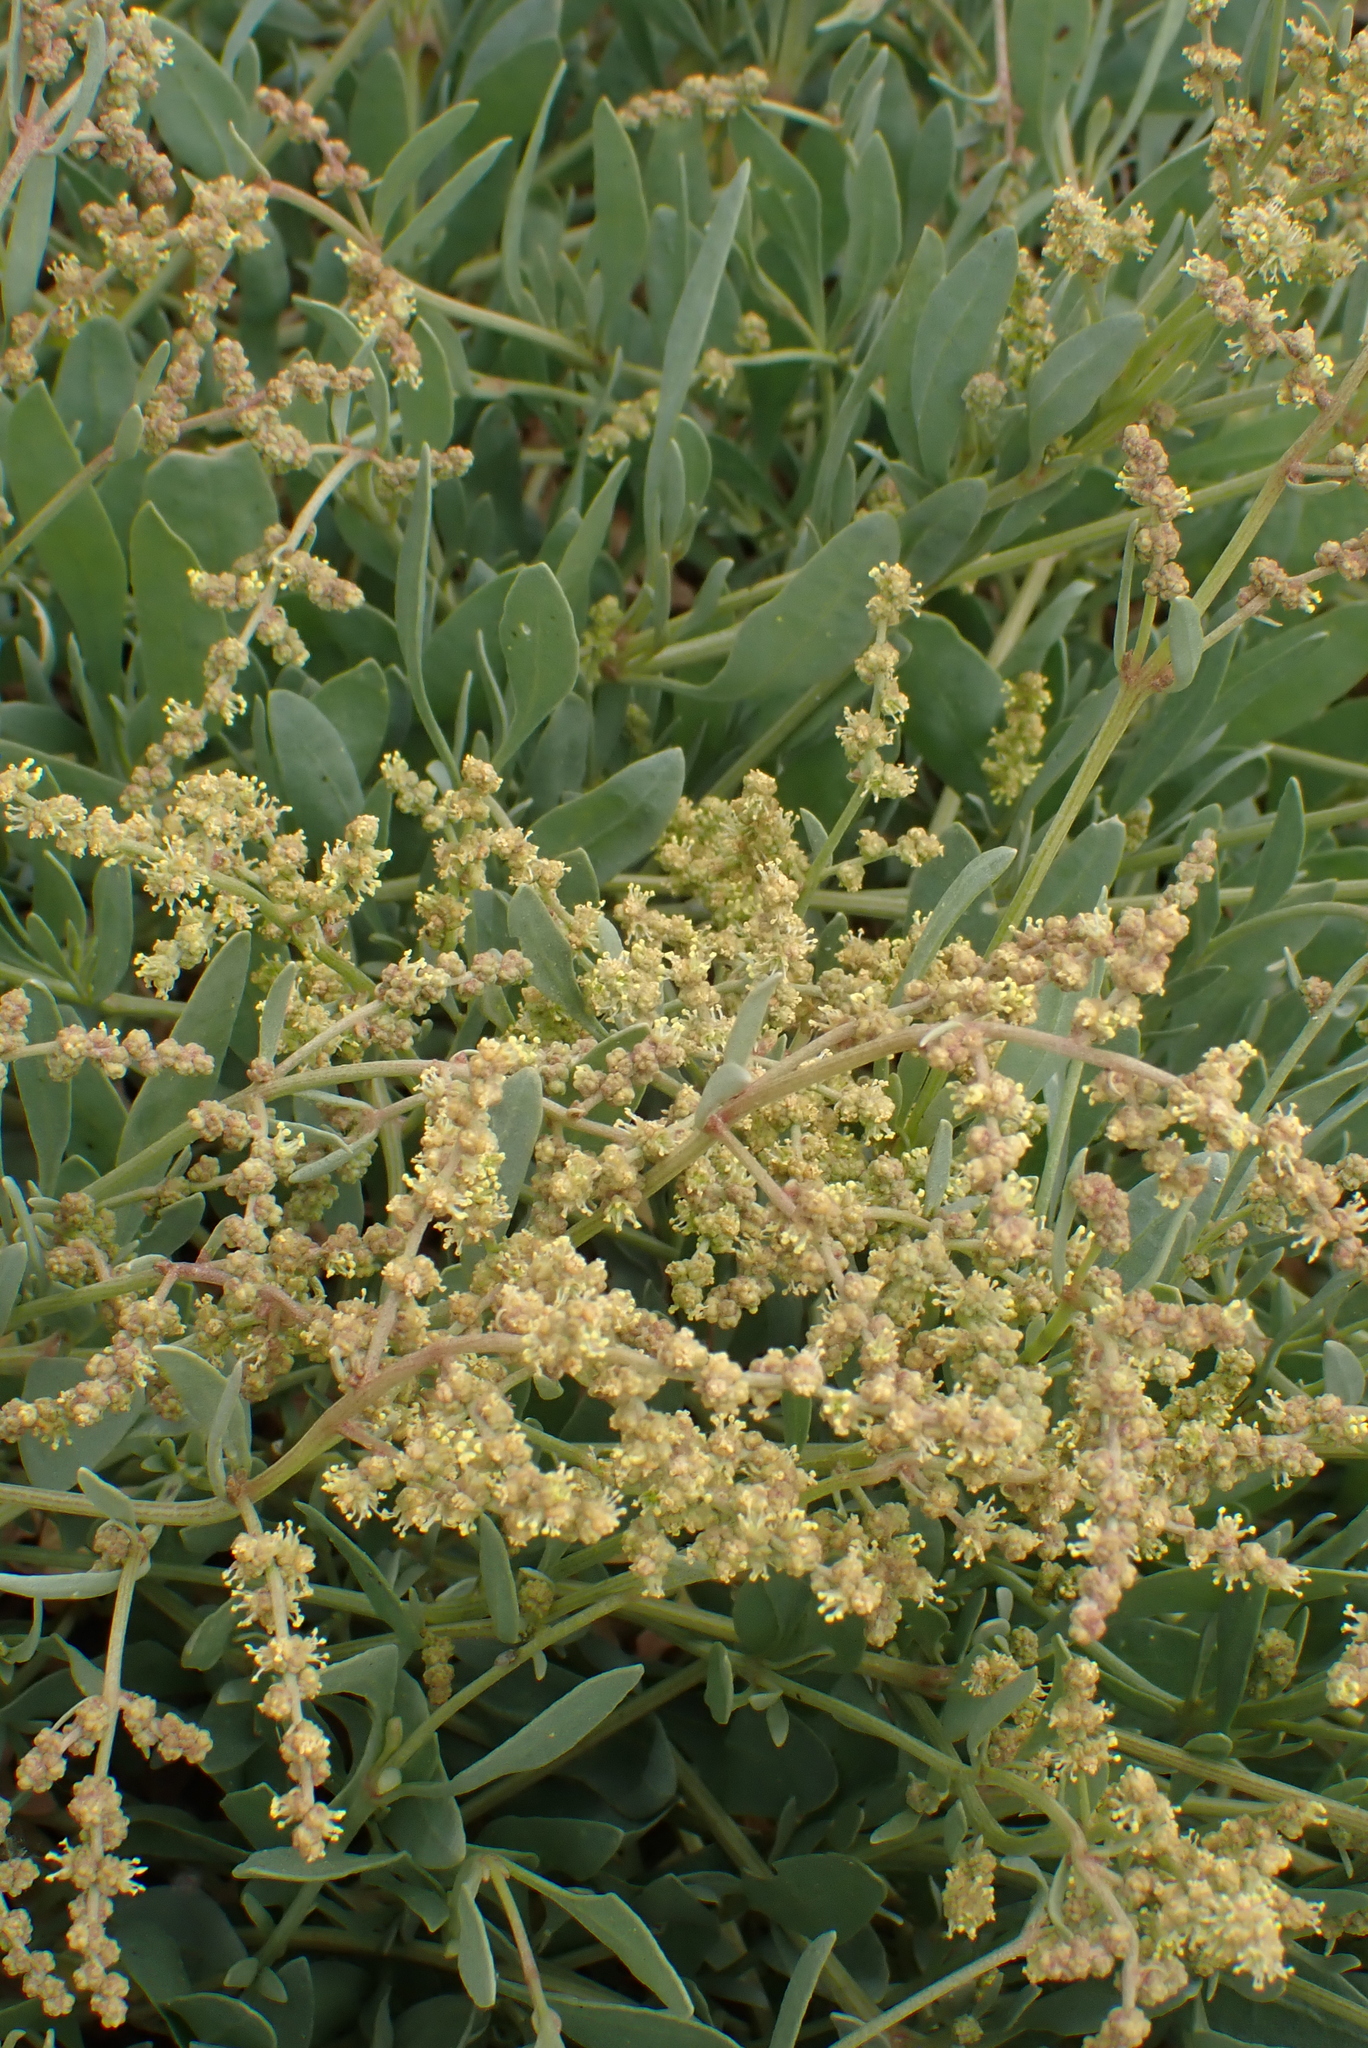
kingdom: Plantae
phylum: Tracheophyta
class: Magnoliopsida
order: Caryophyllales
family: Amaranthaceae
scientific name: Amaranthaceae
